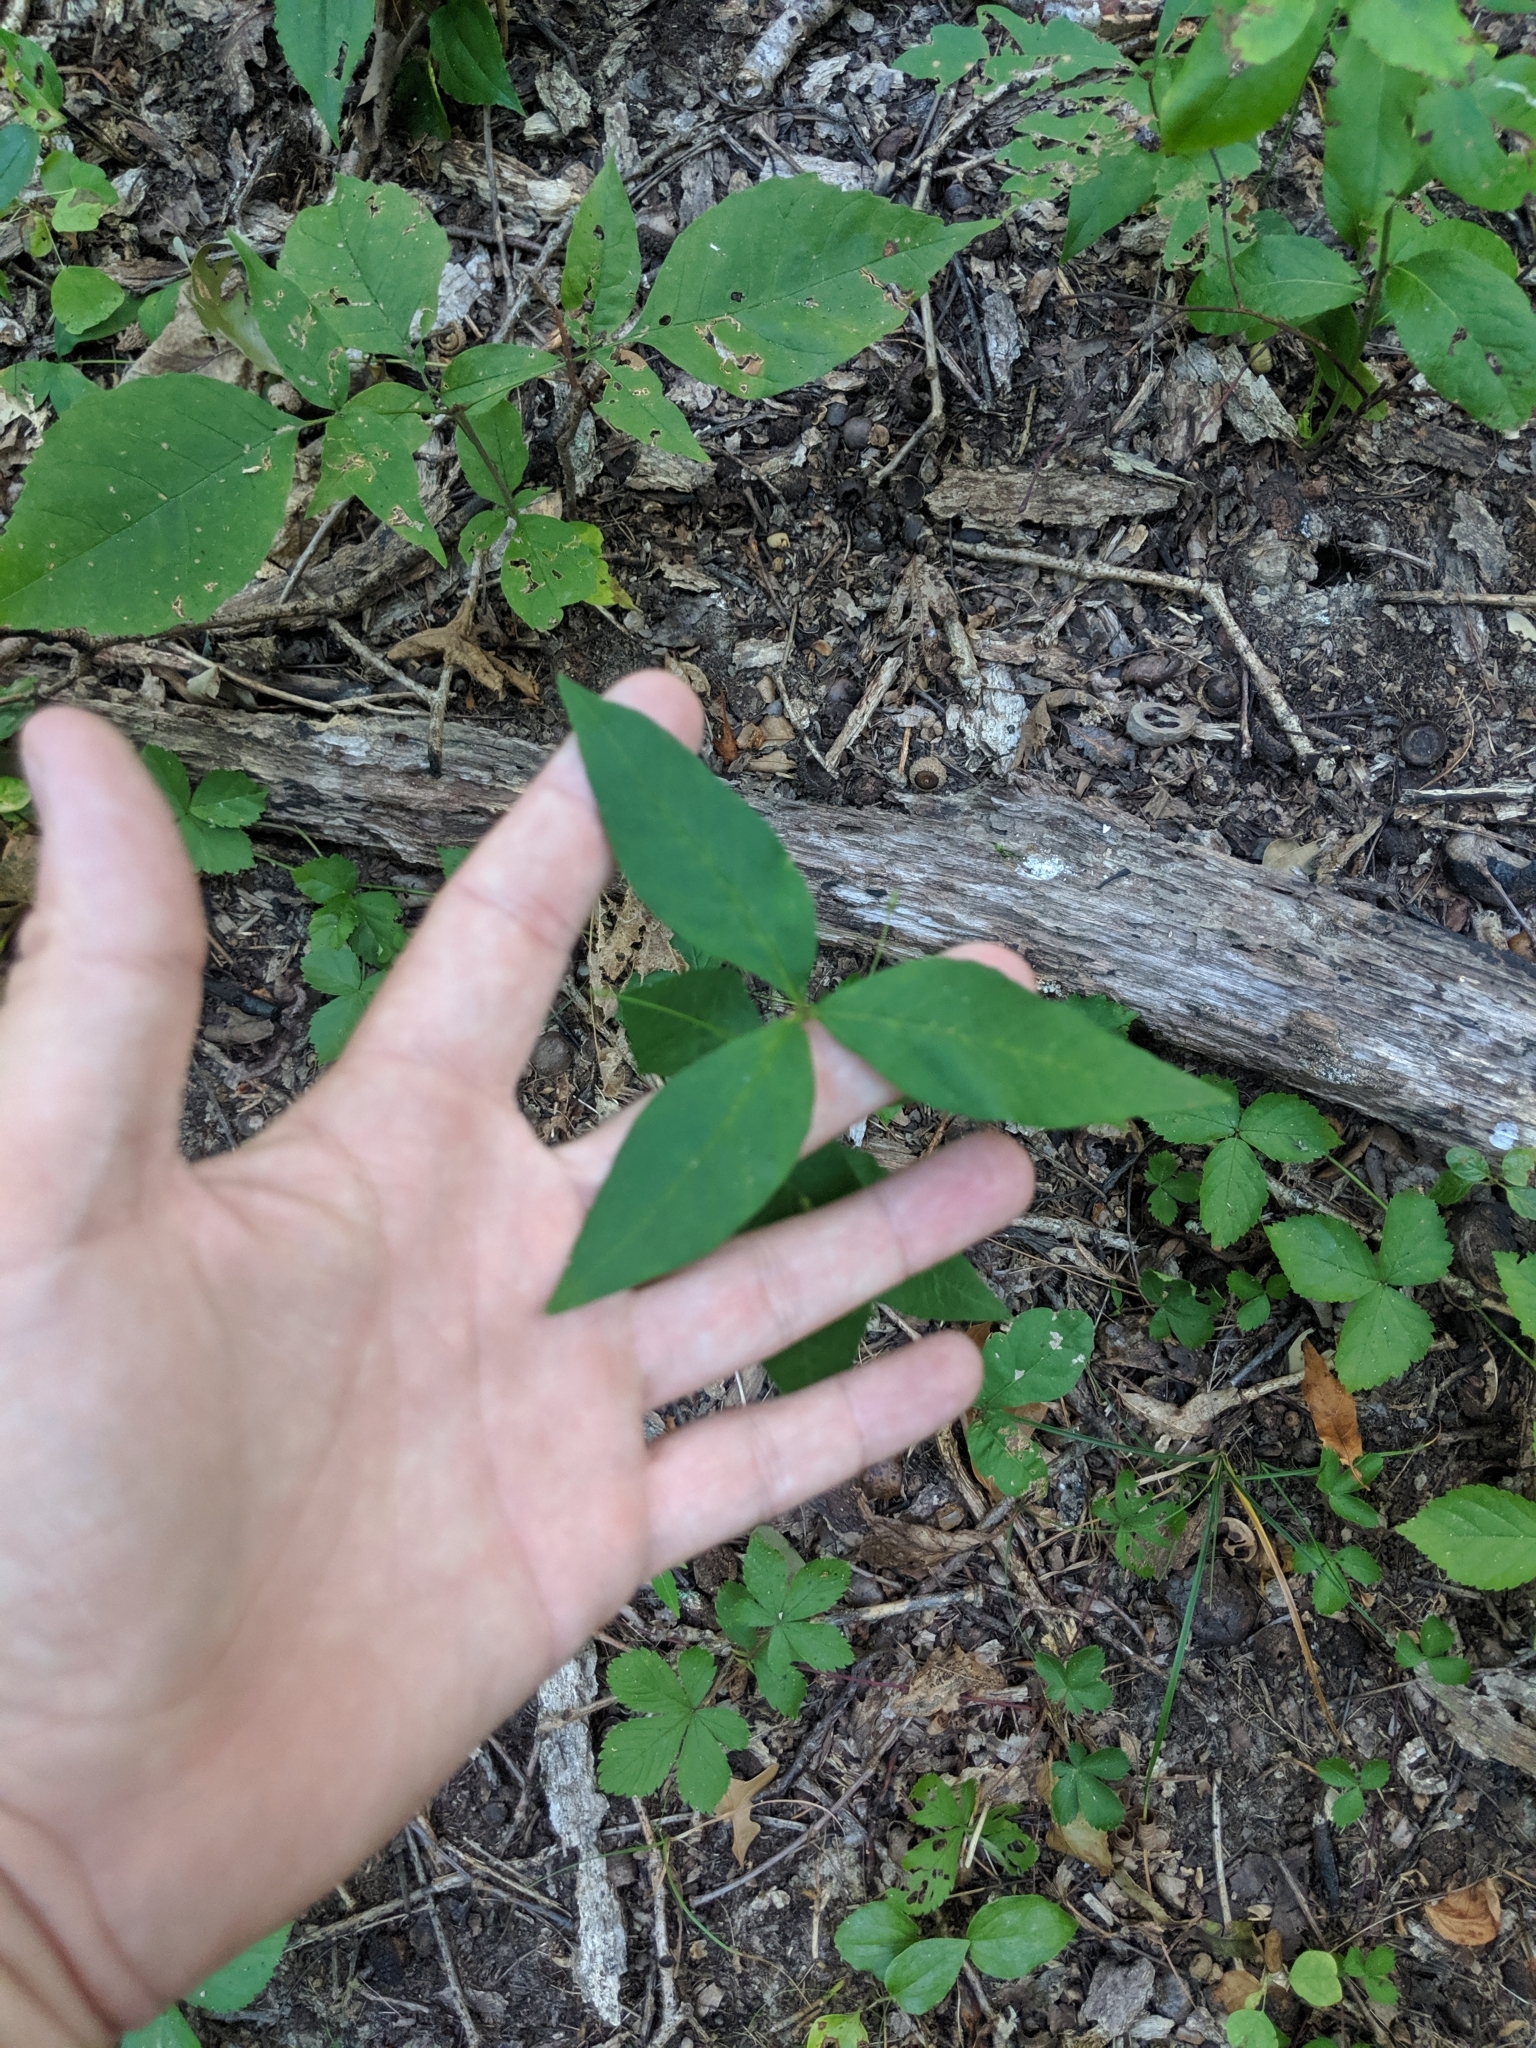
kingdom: Plantae
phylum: Tracheophyta
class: Magnoliopsida
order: Ericales
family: Primulaceae
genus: Lysimachia
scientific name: Lysimachia quadrifolia
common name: Whorled loosestrife
